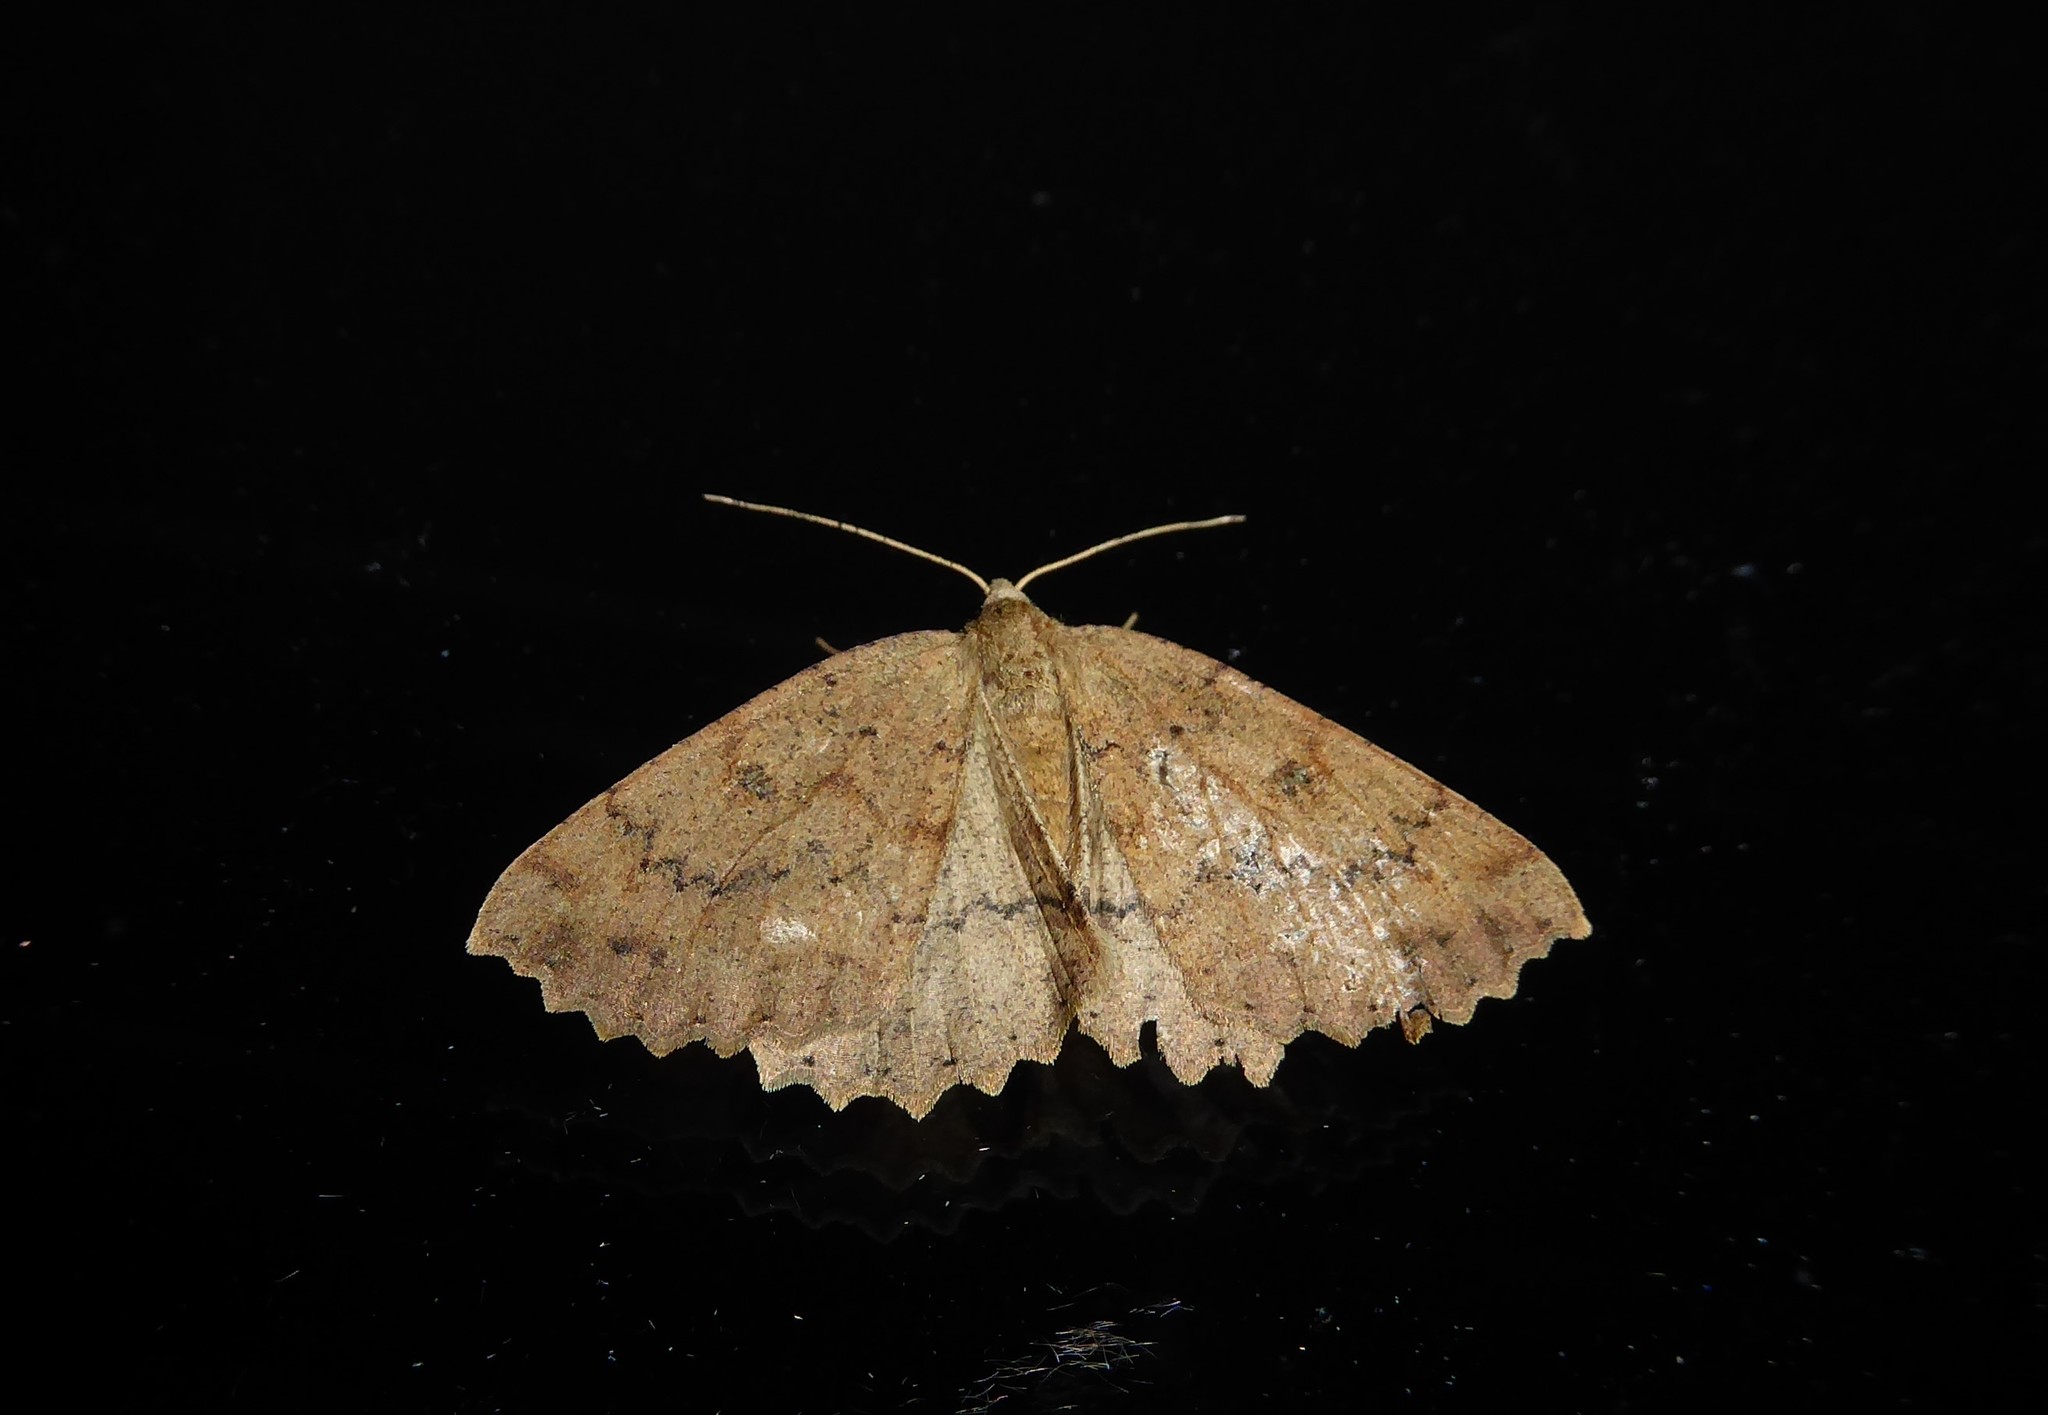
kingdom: Animalia
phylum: Arthropoda
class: Insecta
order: Lepidoptera
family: Geometridae
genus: Cleora
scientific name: Cleora scriptaria
